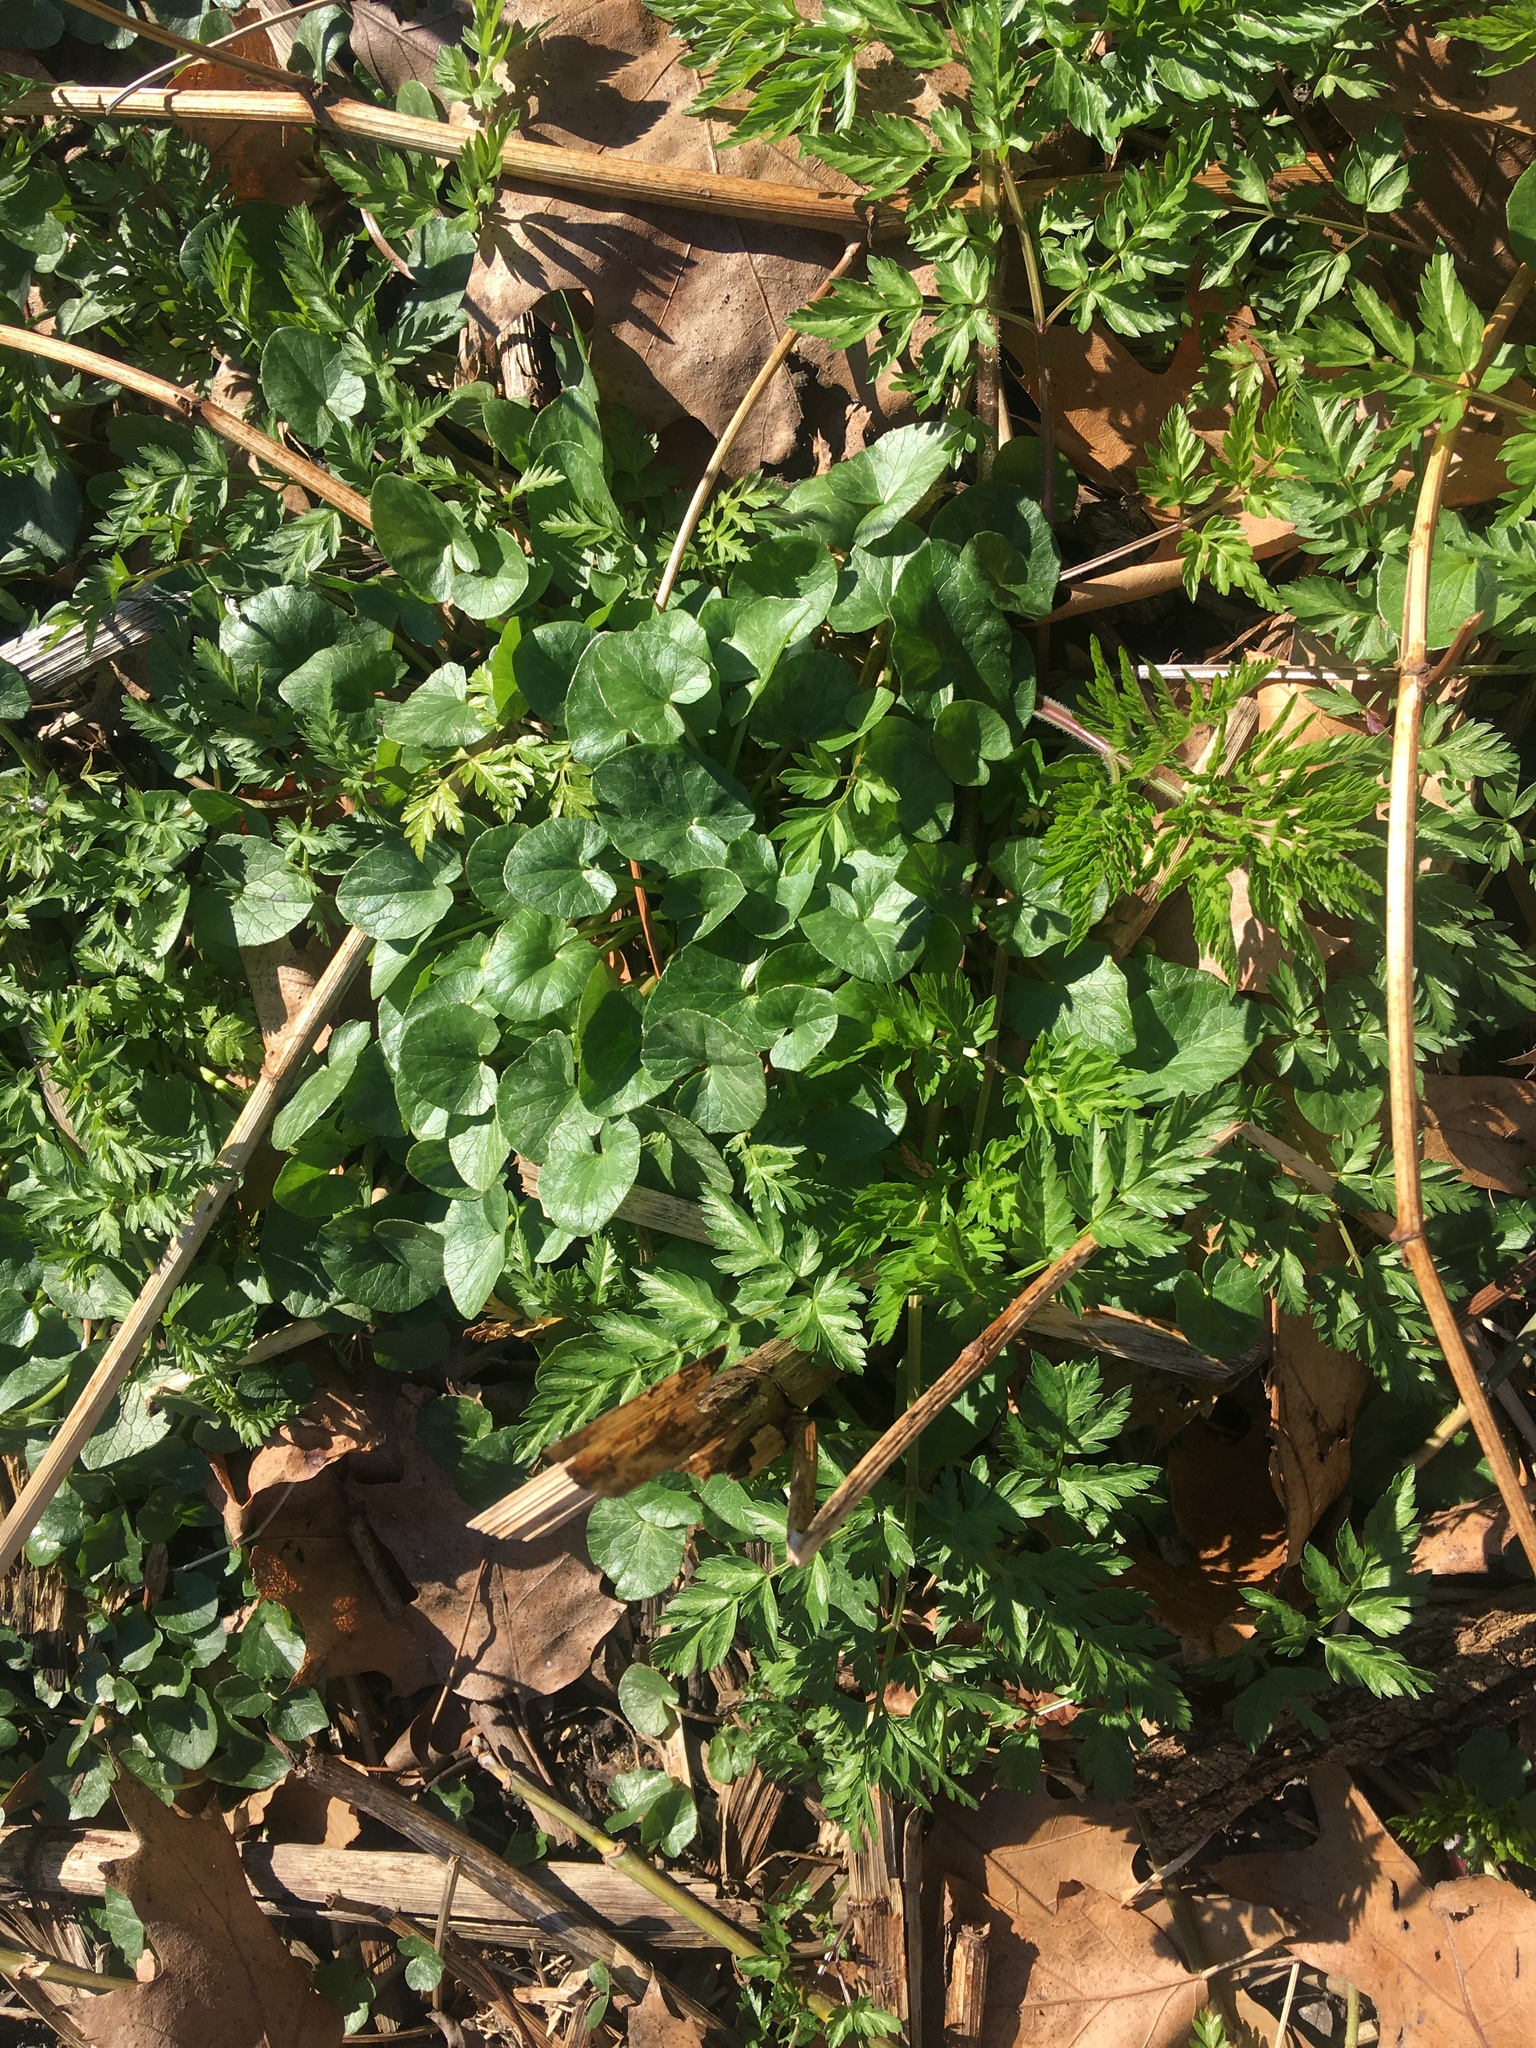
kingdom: Plantae
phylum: Tracheophyta
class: Magnoliopsida
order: Ranunculales
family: Ranunculaceae
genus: Ficaria
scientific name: Ficaria verna
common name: Lesser celandine
